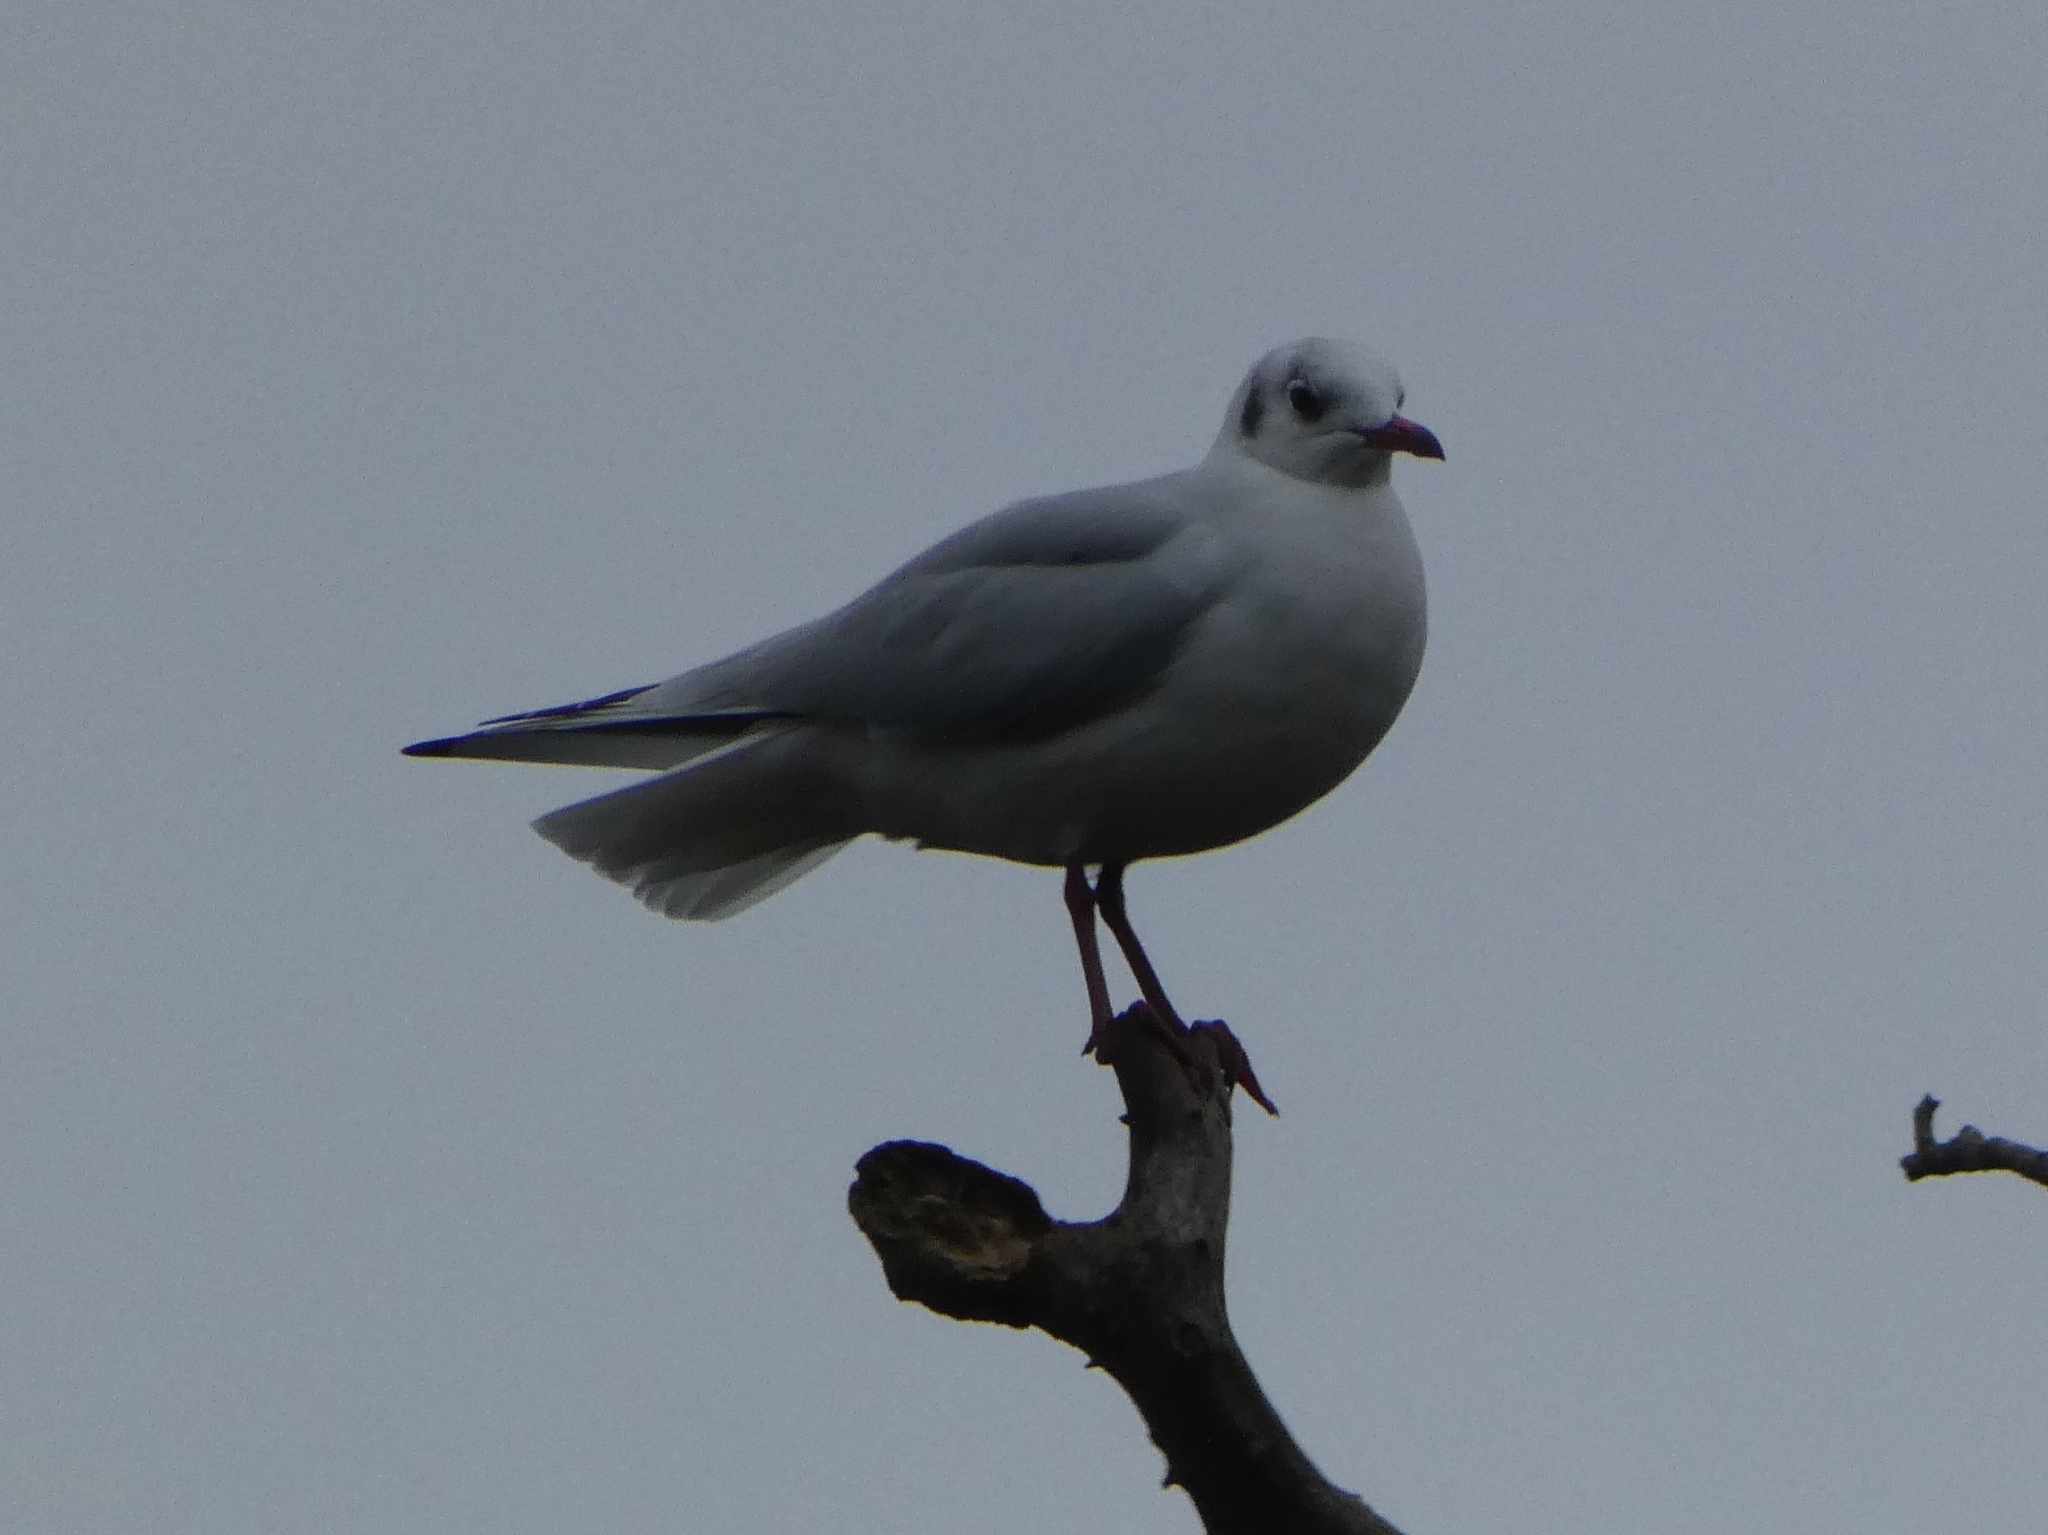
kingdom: Animalia
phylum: Chordata
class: Aves
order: Charadriiformes
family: Laridae
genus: Chroicocephalus
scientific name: Chroicocephalus ridibundus
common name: Black-headed gull
